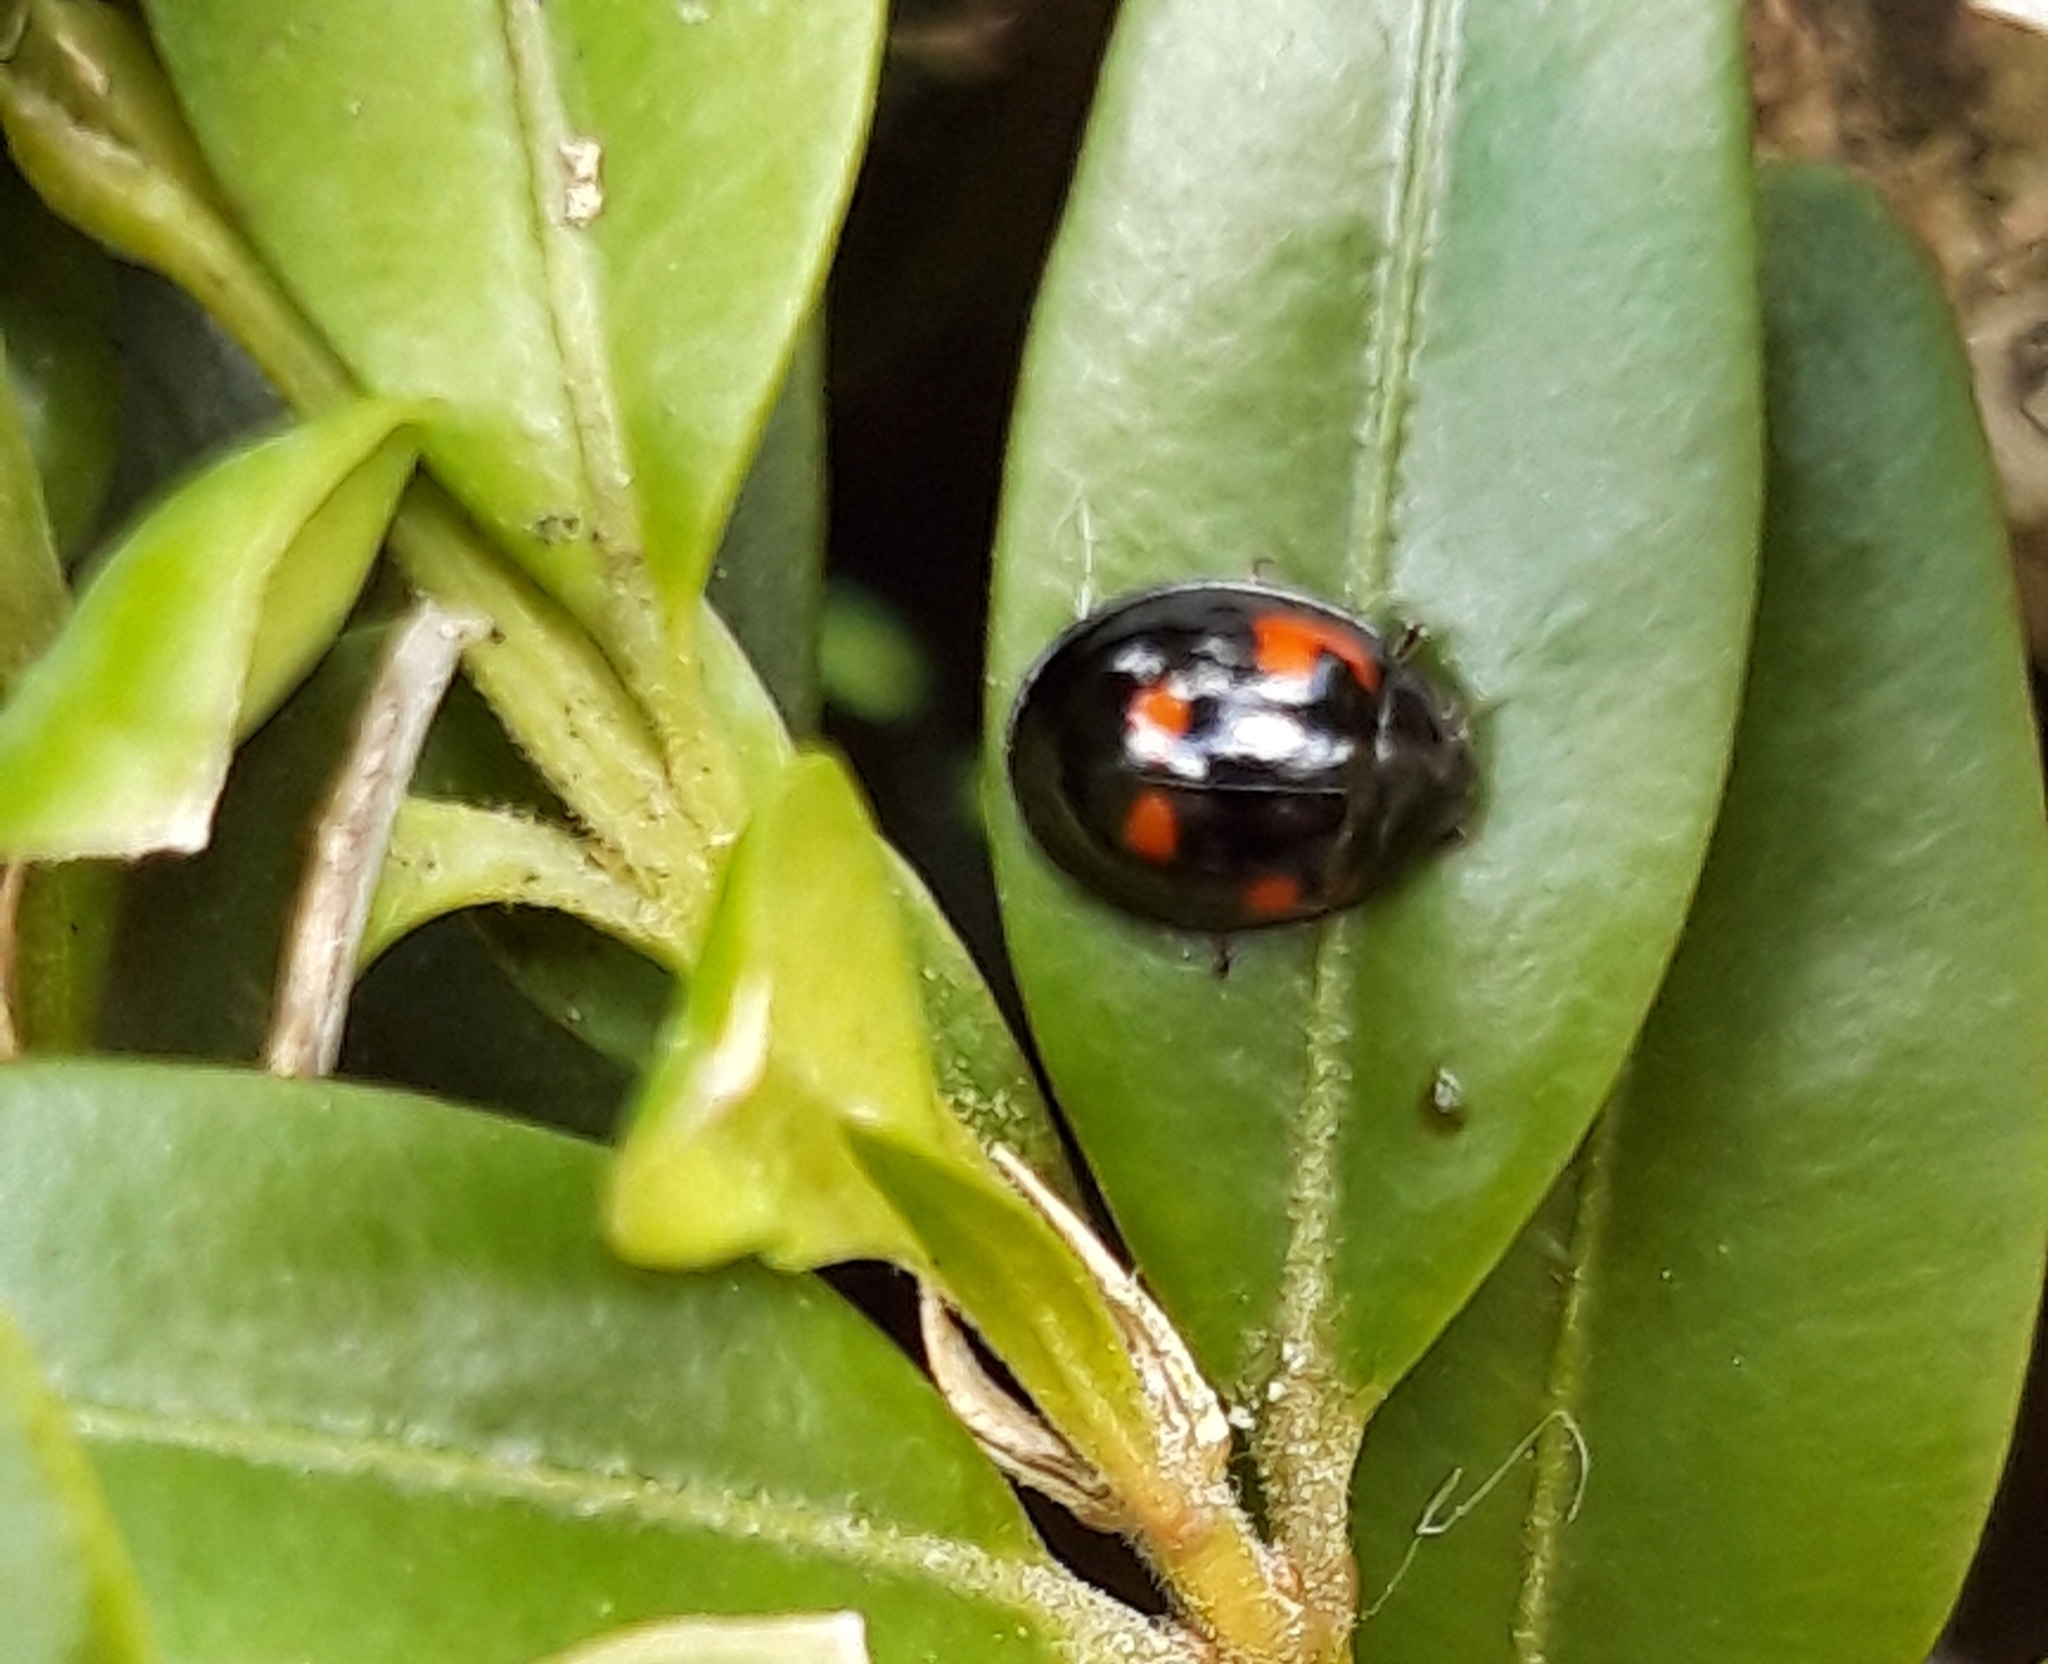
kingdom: Animalia
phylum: Arthropoda
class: Insecta
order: Coleoptera
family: Coccinellidae
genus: Brumus
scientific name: Brumus quadripustulatus
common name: Ladybird beetle
